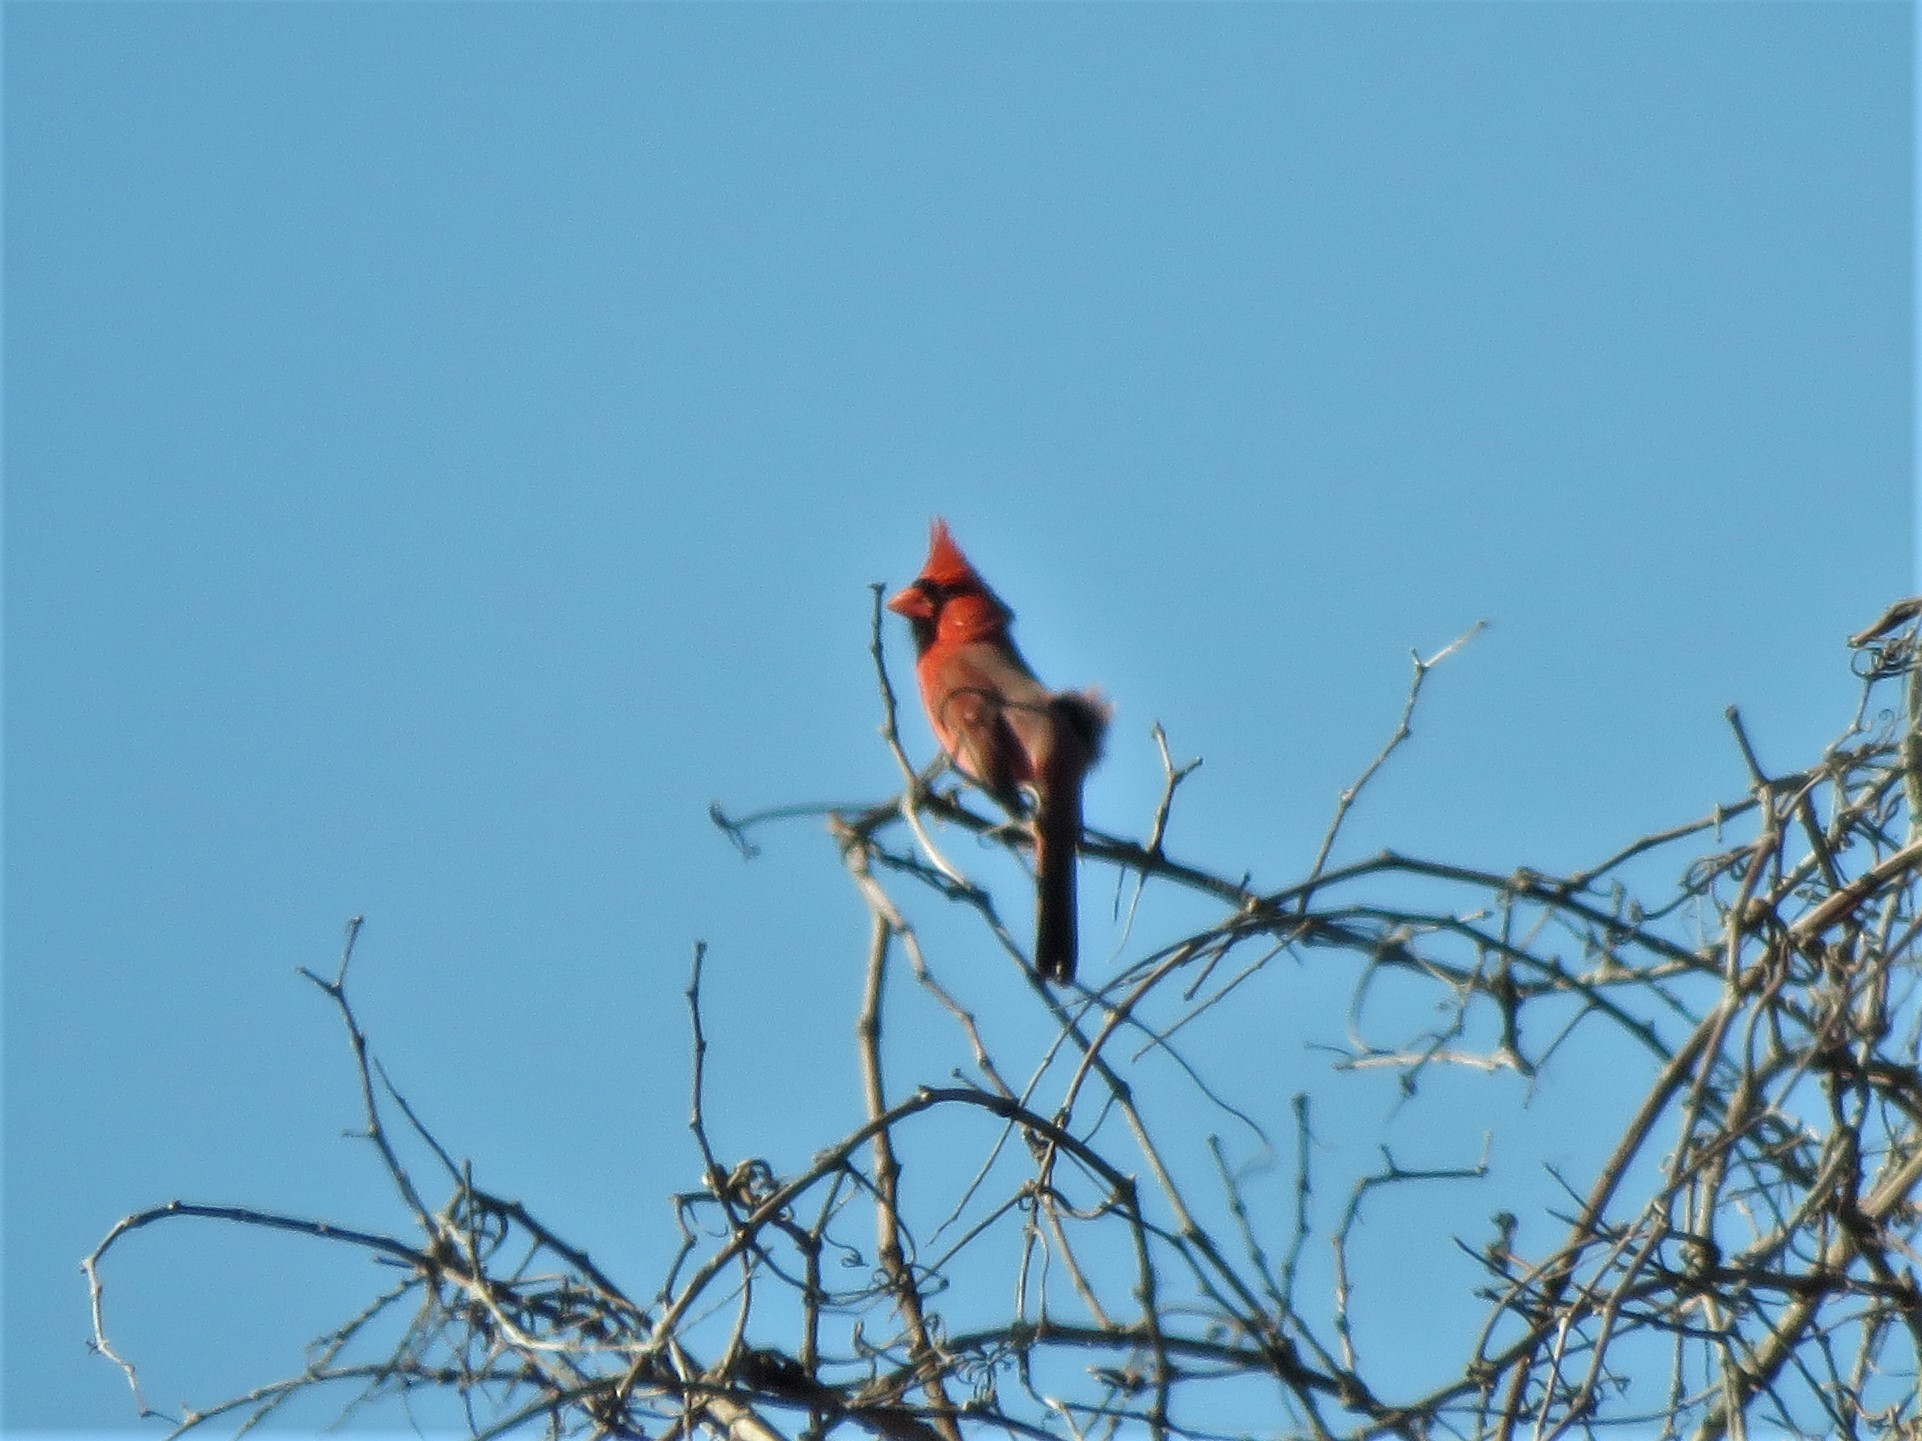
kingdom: Animalia
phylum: Chordata
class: Aves
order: Passeriformes
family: Cardinalidae
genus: Cardinalis
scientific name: Cardinalis cardinalis
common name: Northern cardinal
